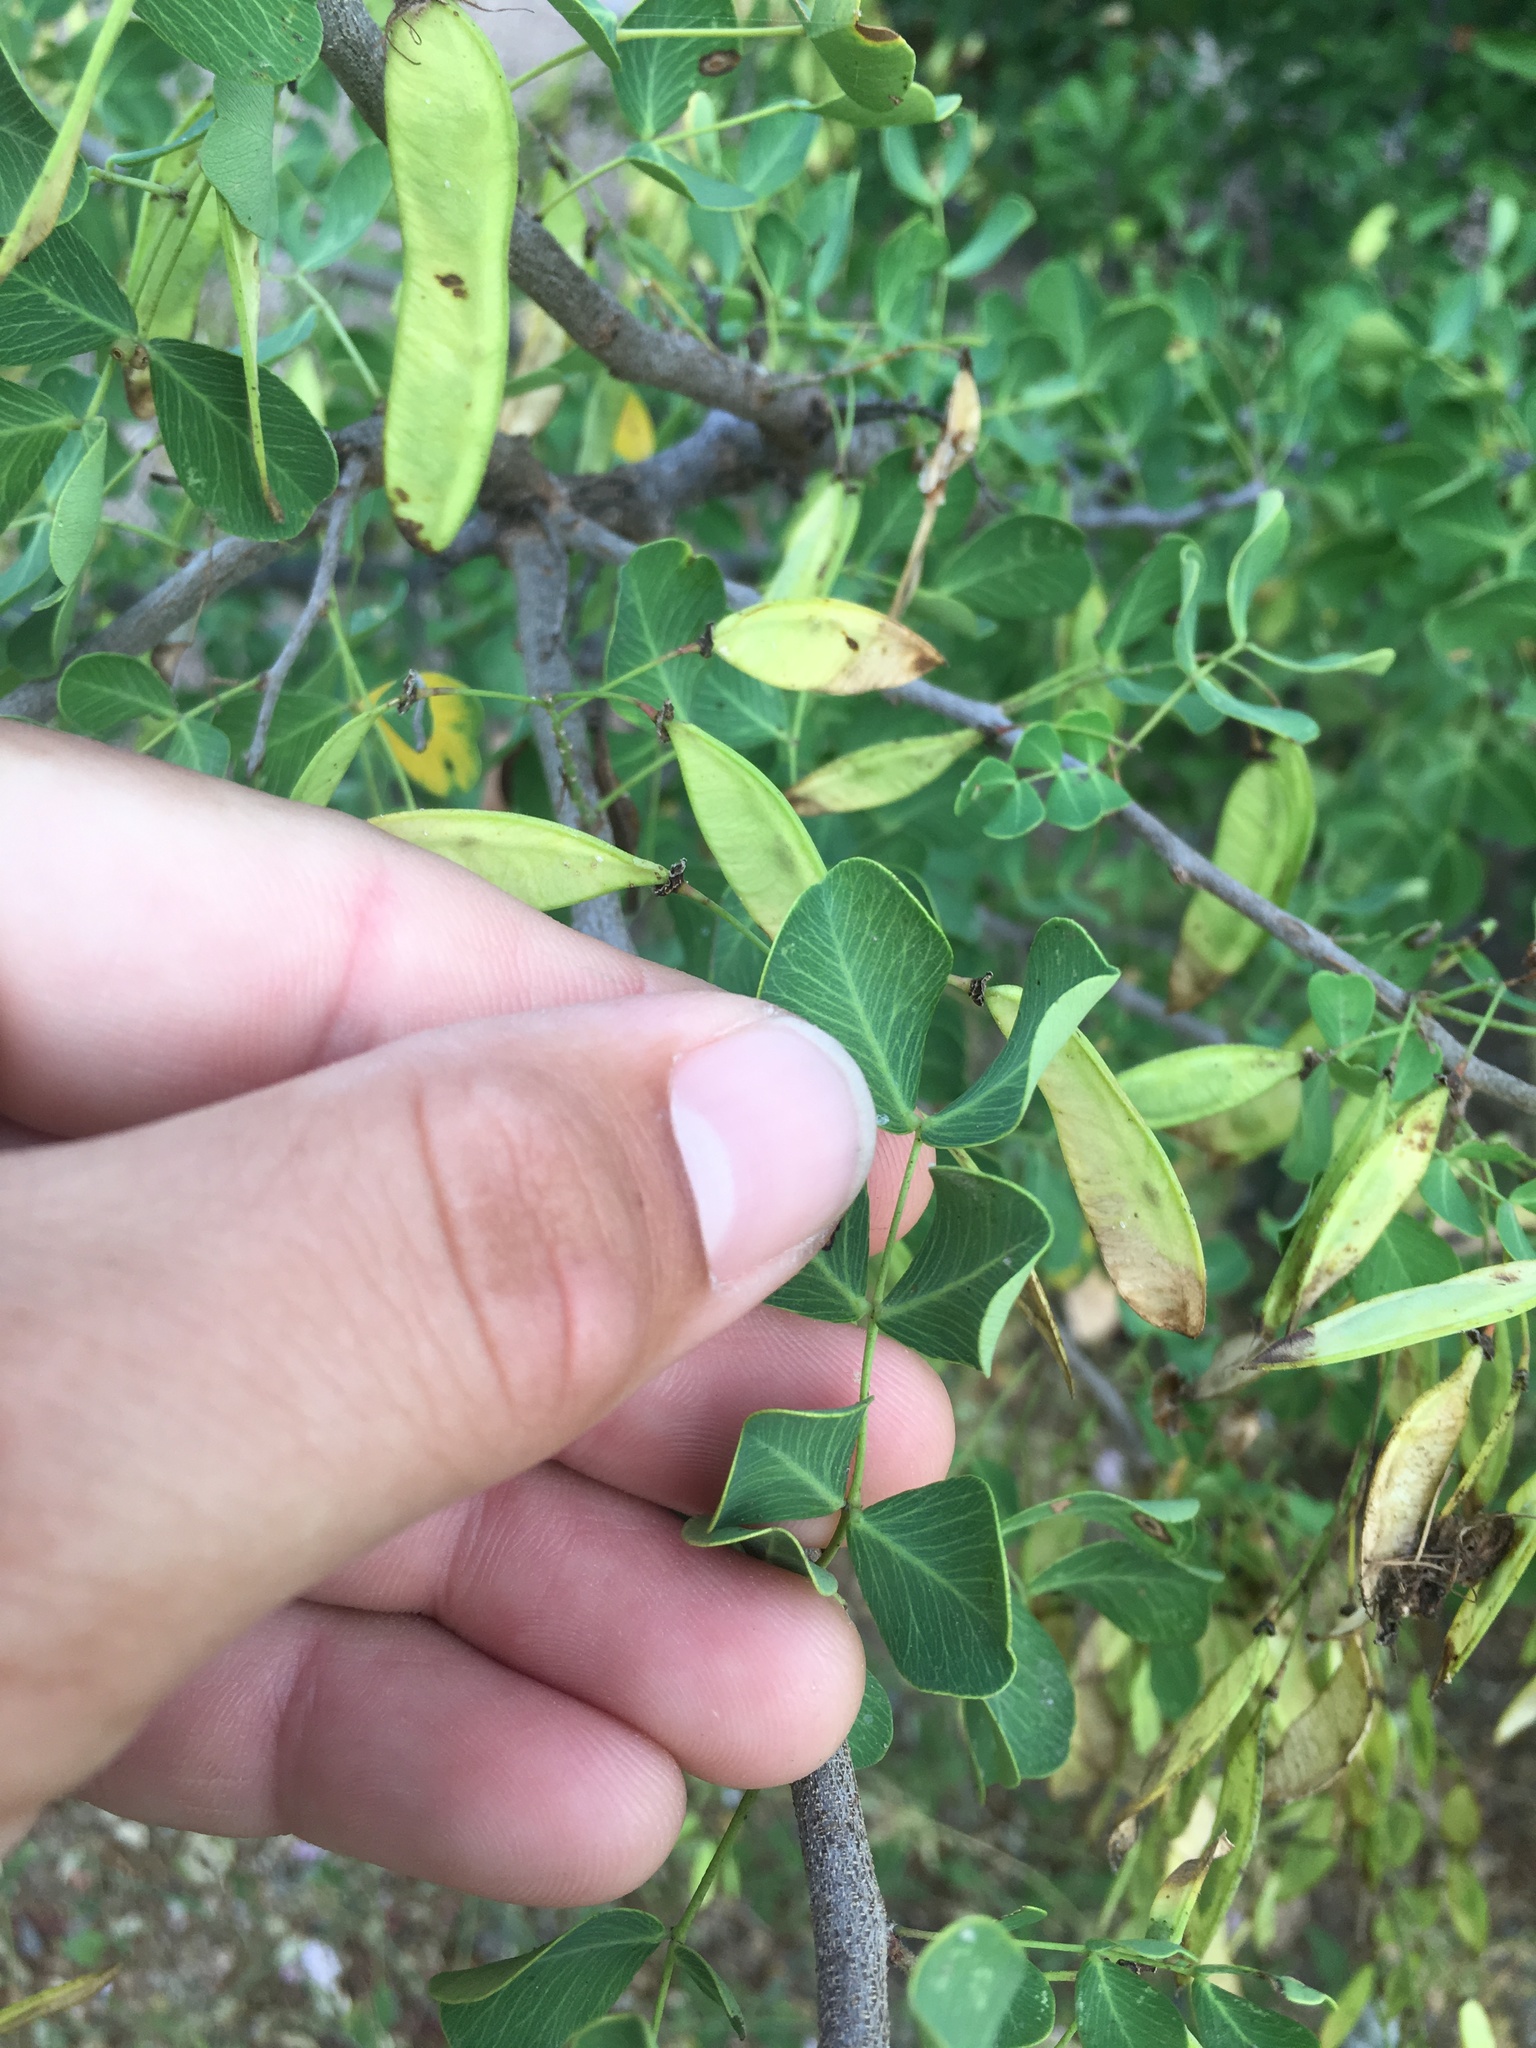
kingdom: Plantae
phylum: Tracheophyta
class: Magnoliopsida
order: Fabales
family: Fabaceae
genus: Haematoxylum
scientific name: Haematoxylum brasiletto
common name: Peachwood
